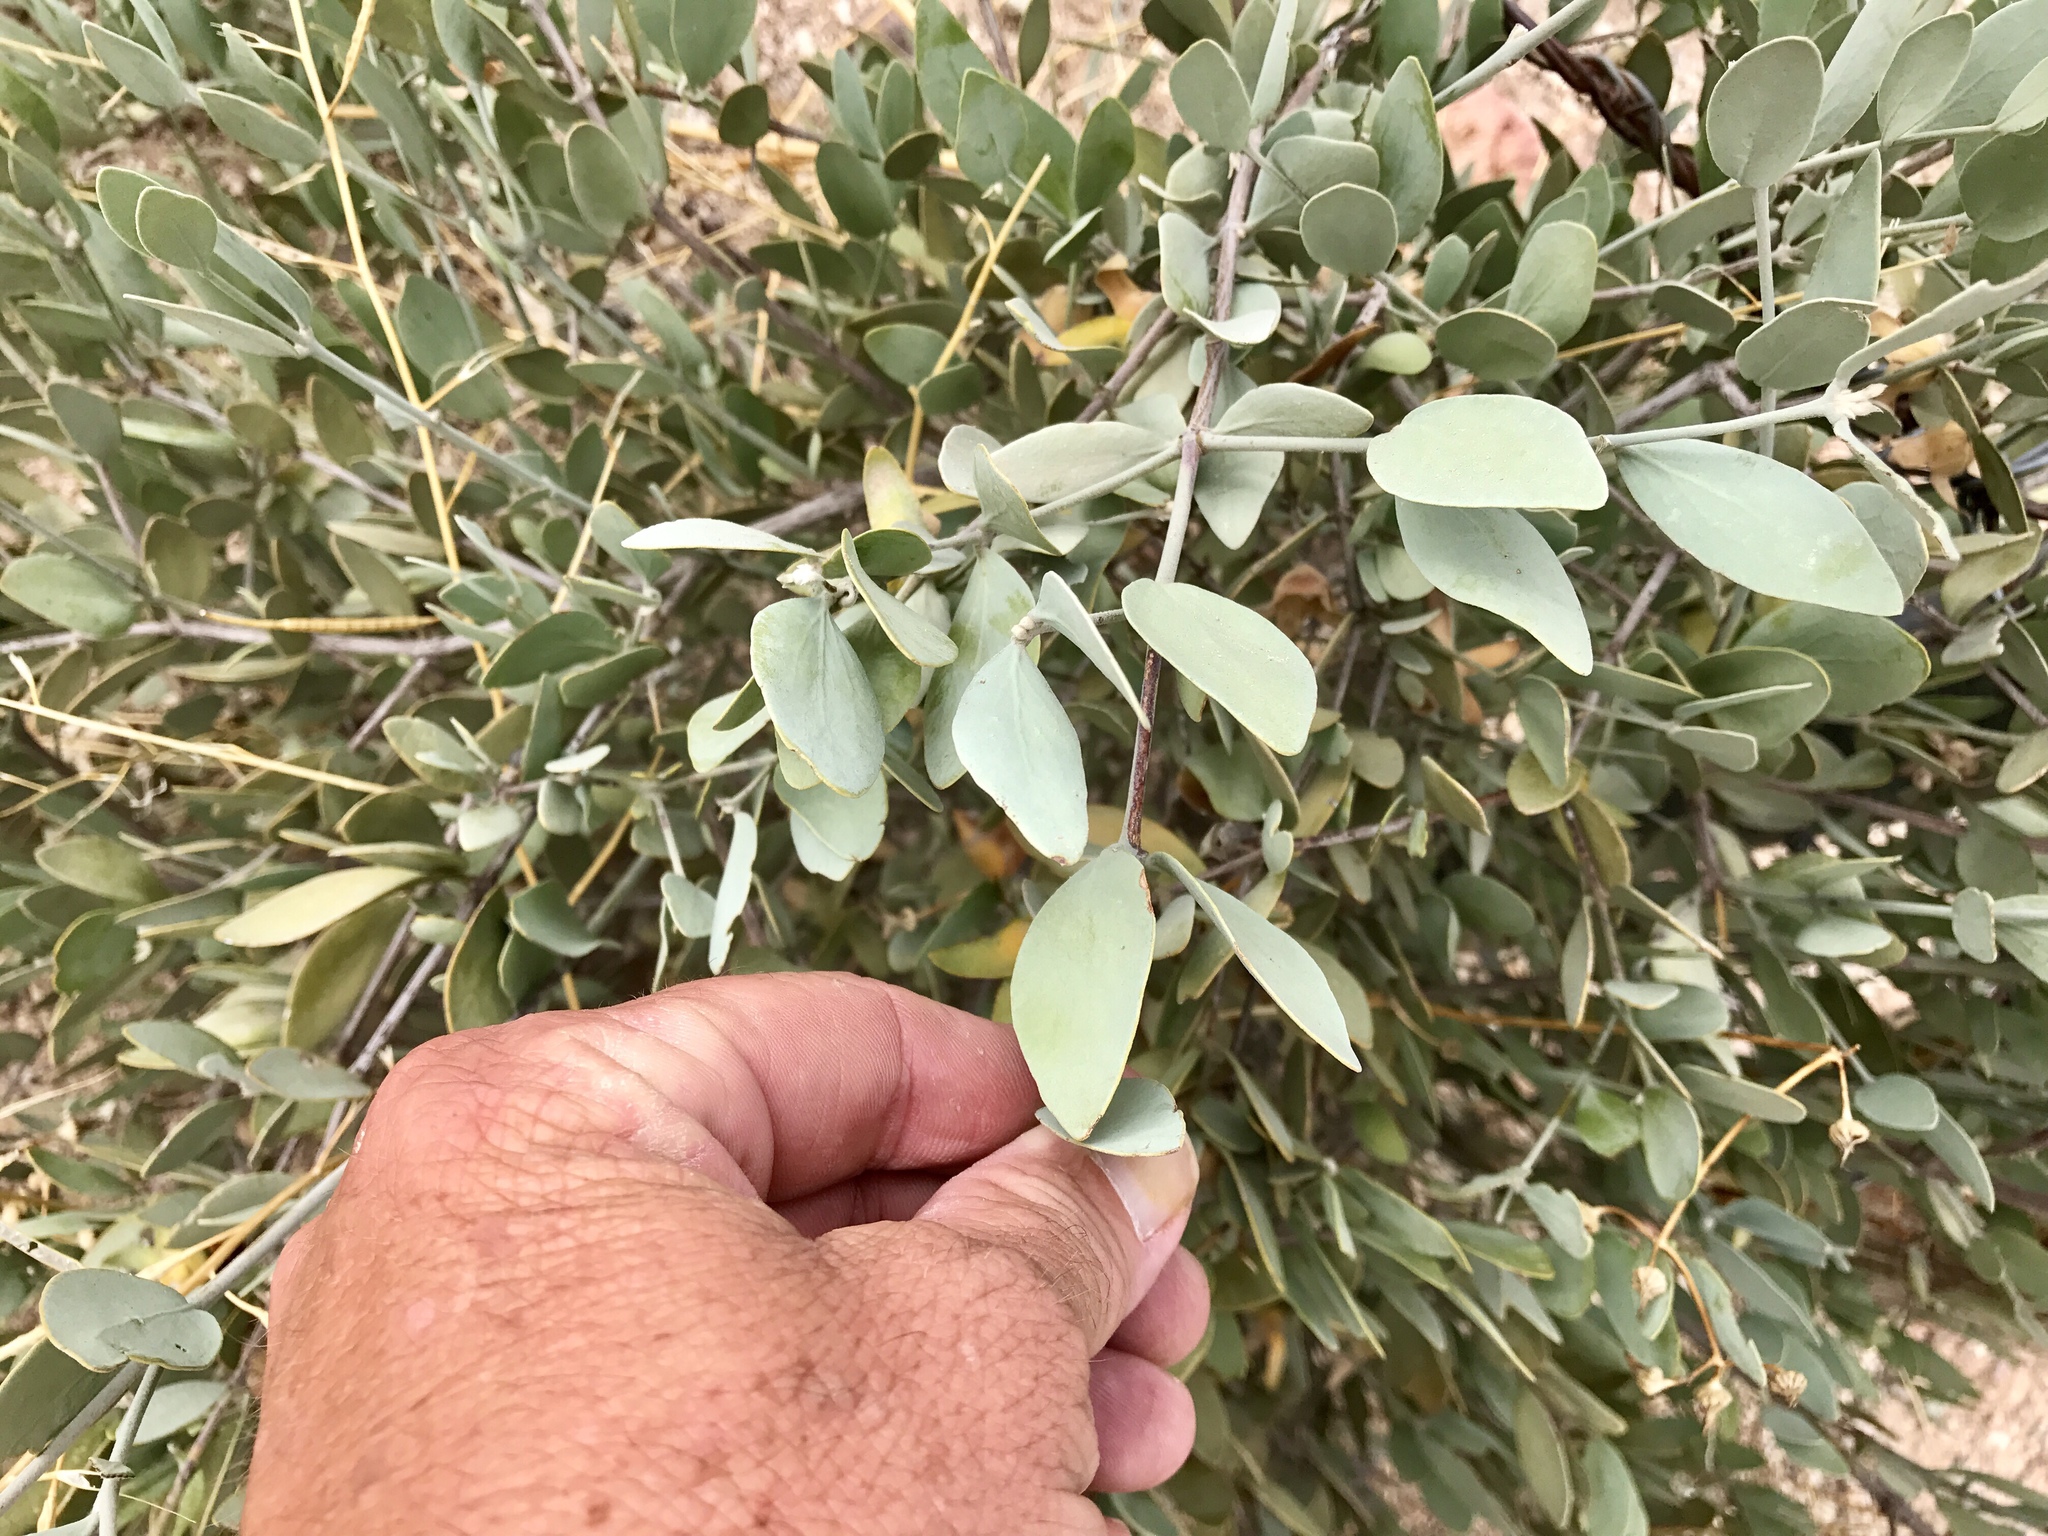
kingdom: Plantae
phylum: Tracheophyta
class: Magnoliopsida
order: Caryophyllales
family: Simmondsiaceae
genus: Simmondsia
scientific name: Simmondsia chinensis
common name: Jojoba
